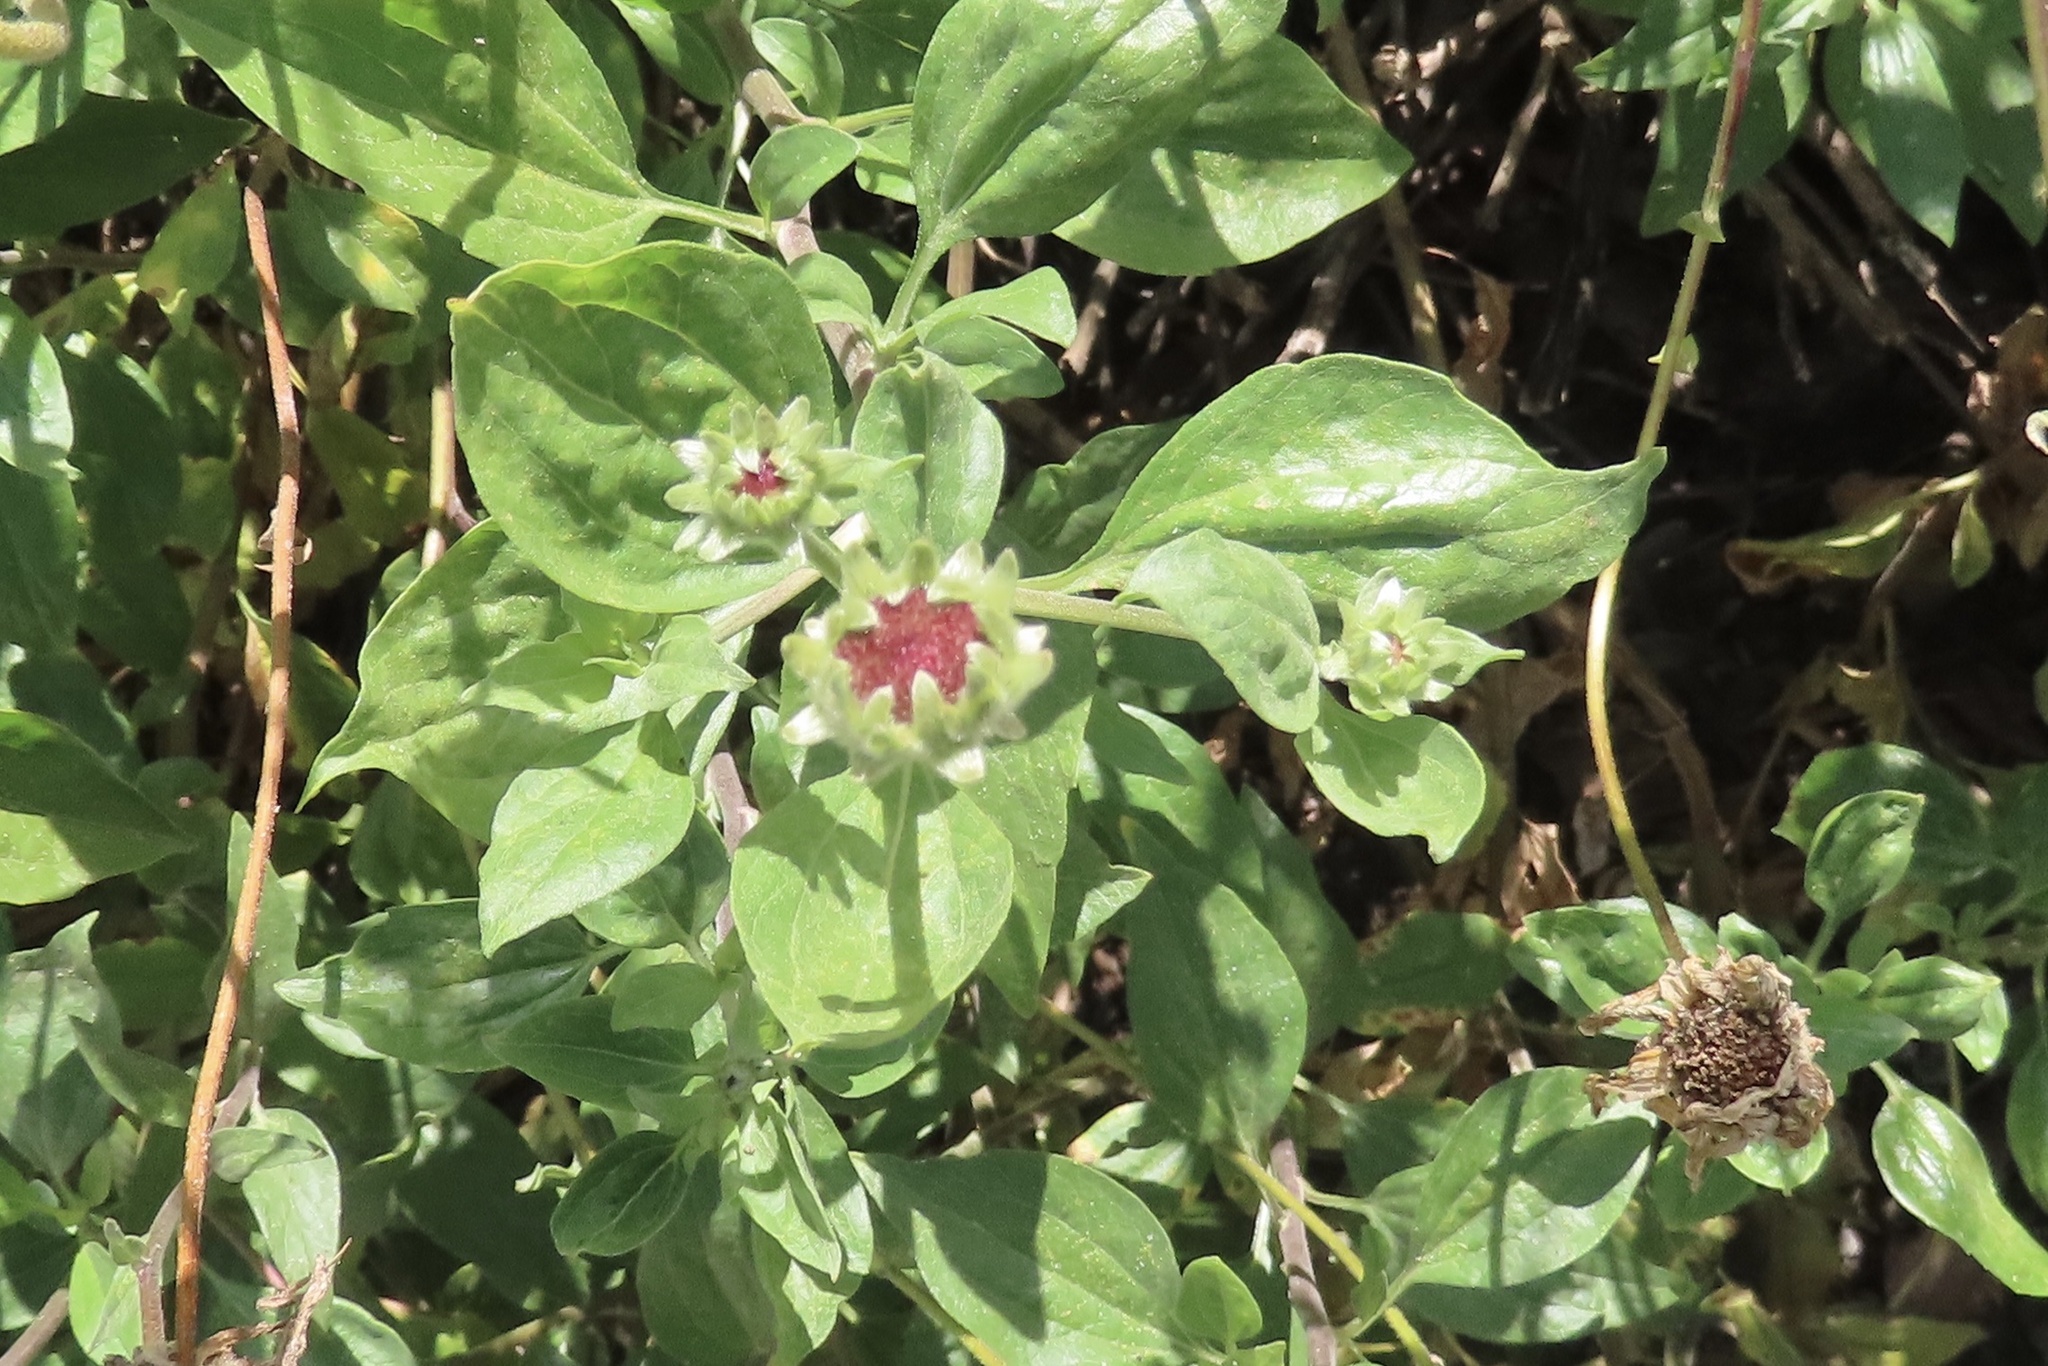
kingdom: Plantae
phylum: Tracheophyta
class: Magnoliopsida
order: Asterales
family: Asteraceae
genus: Encelia
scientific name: Encelia californica
